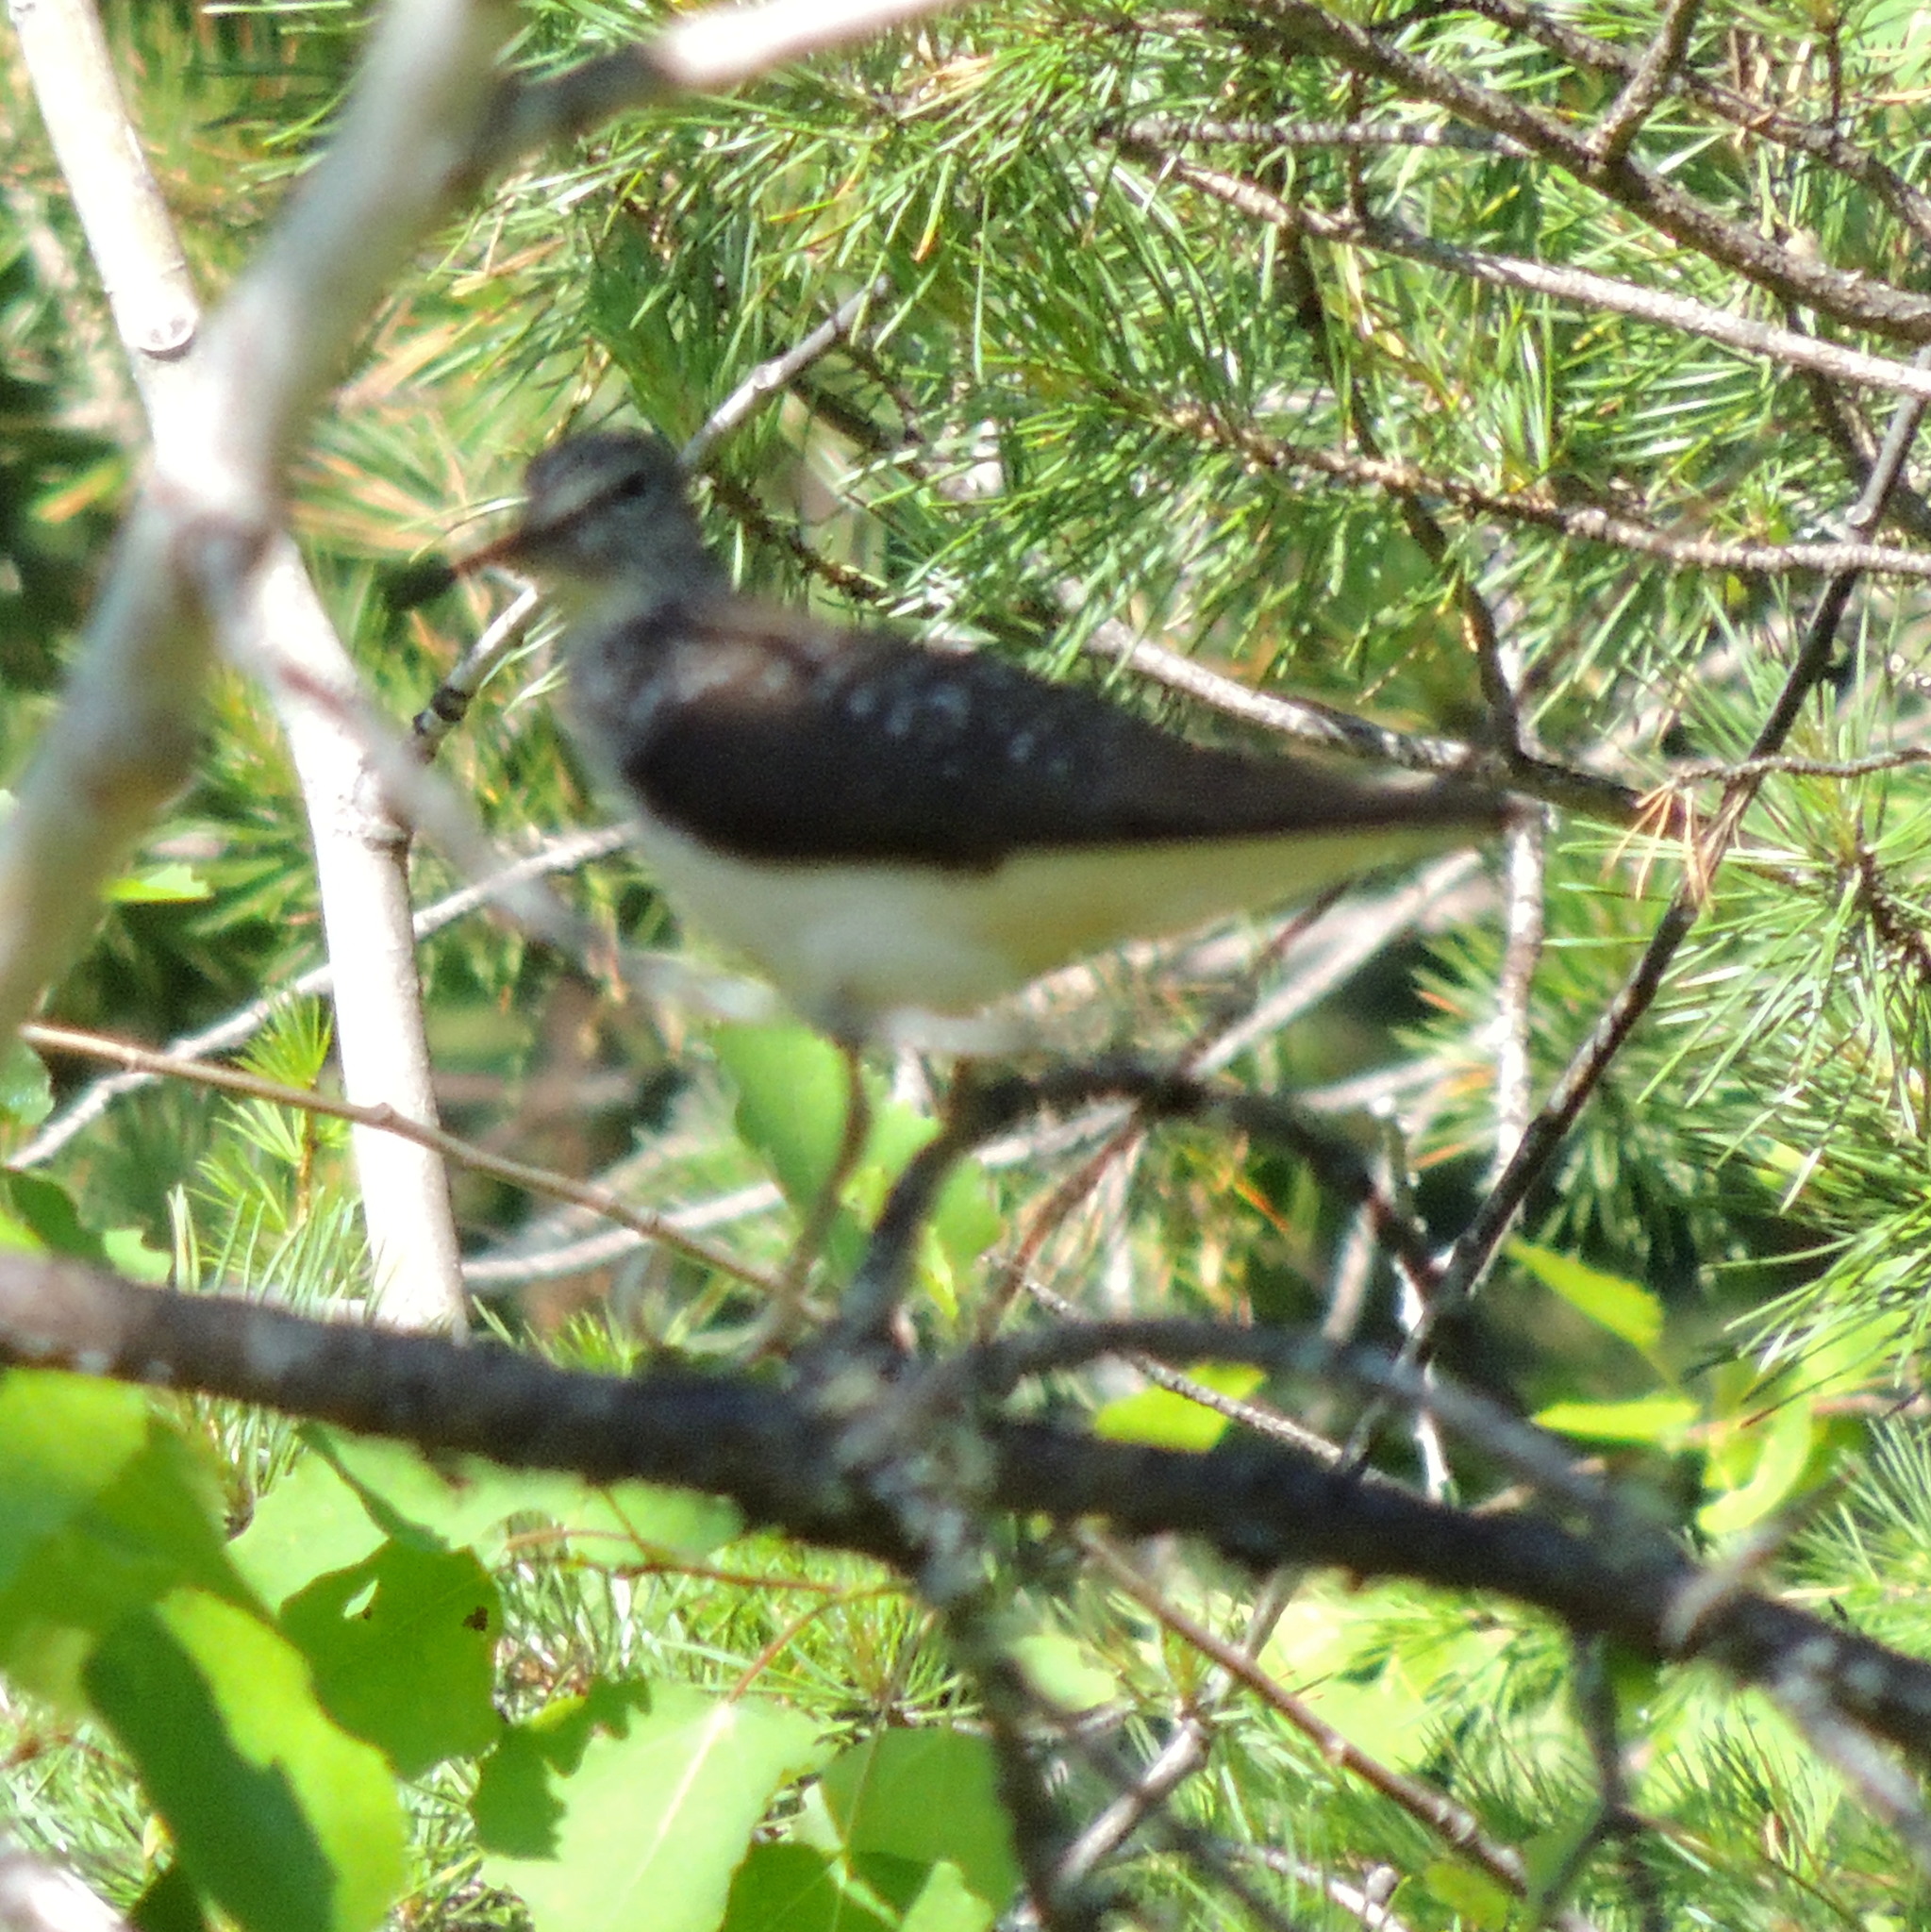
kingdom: Animalia
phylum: Chordata
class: Aves
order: Charadriiformes
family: Scolopacidae
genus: Tringa
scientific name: Tringa ochropus
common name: Green sandpiper
